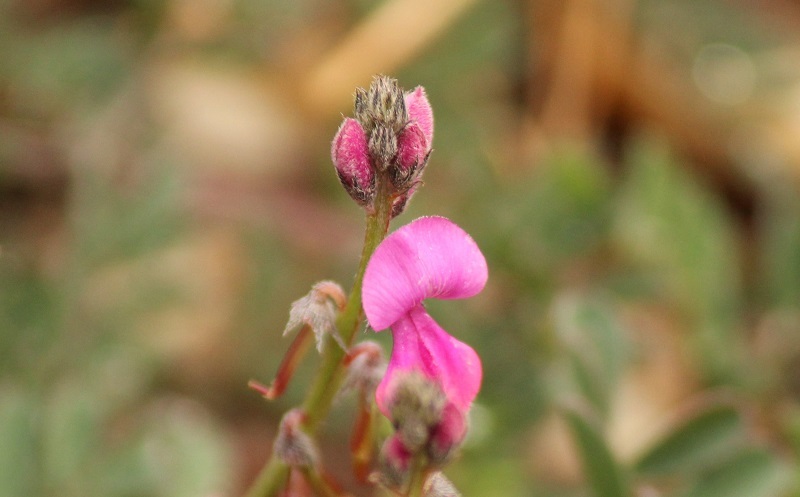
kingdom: Plantae
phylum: Tracheophyta
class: Magnoliopsida
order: Fabales
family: Fabaceae
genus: Indigofera
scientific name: Indigofera declinata
